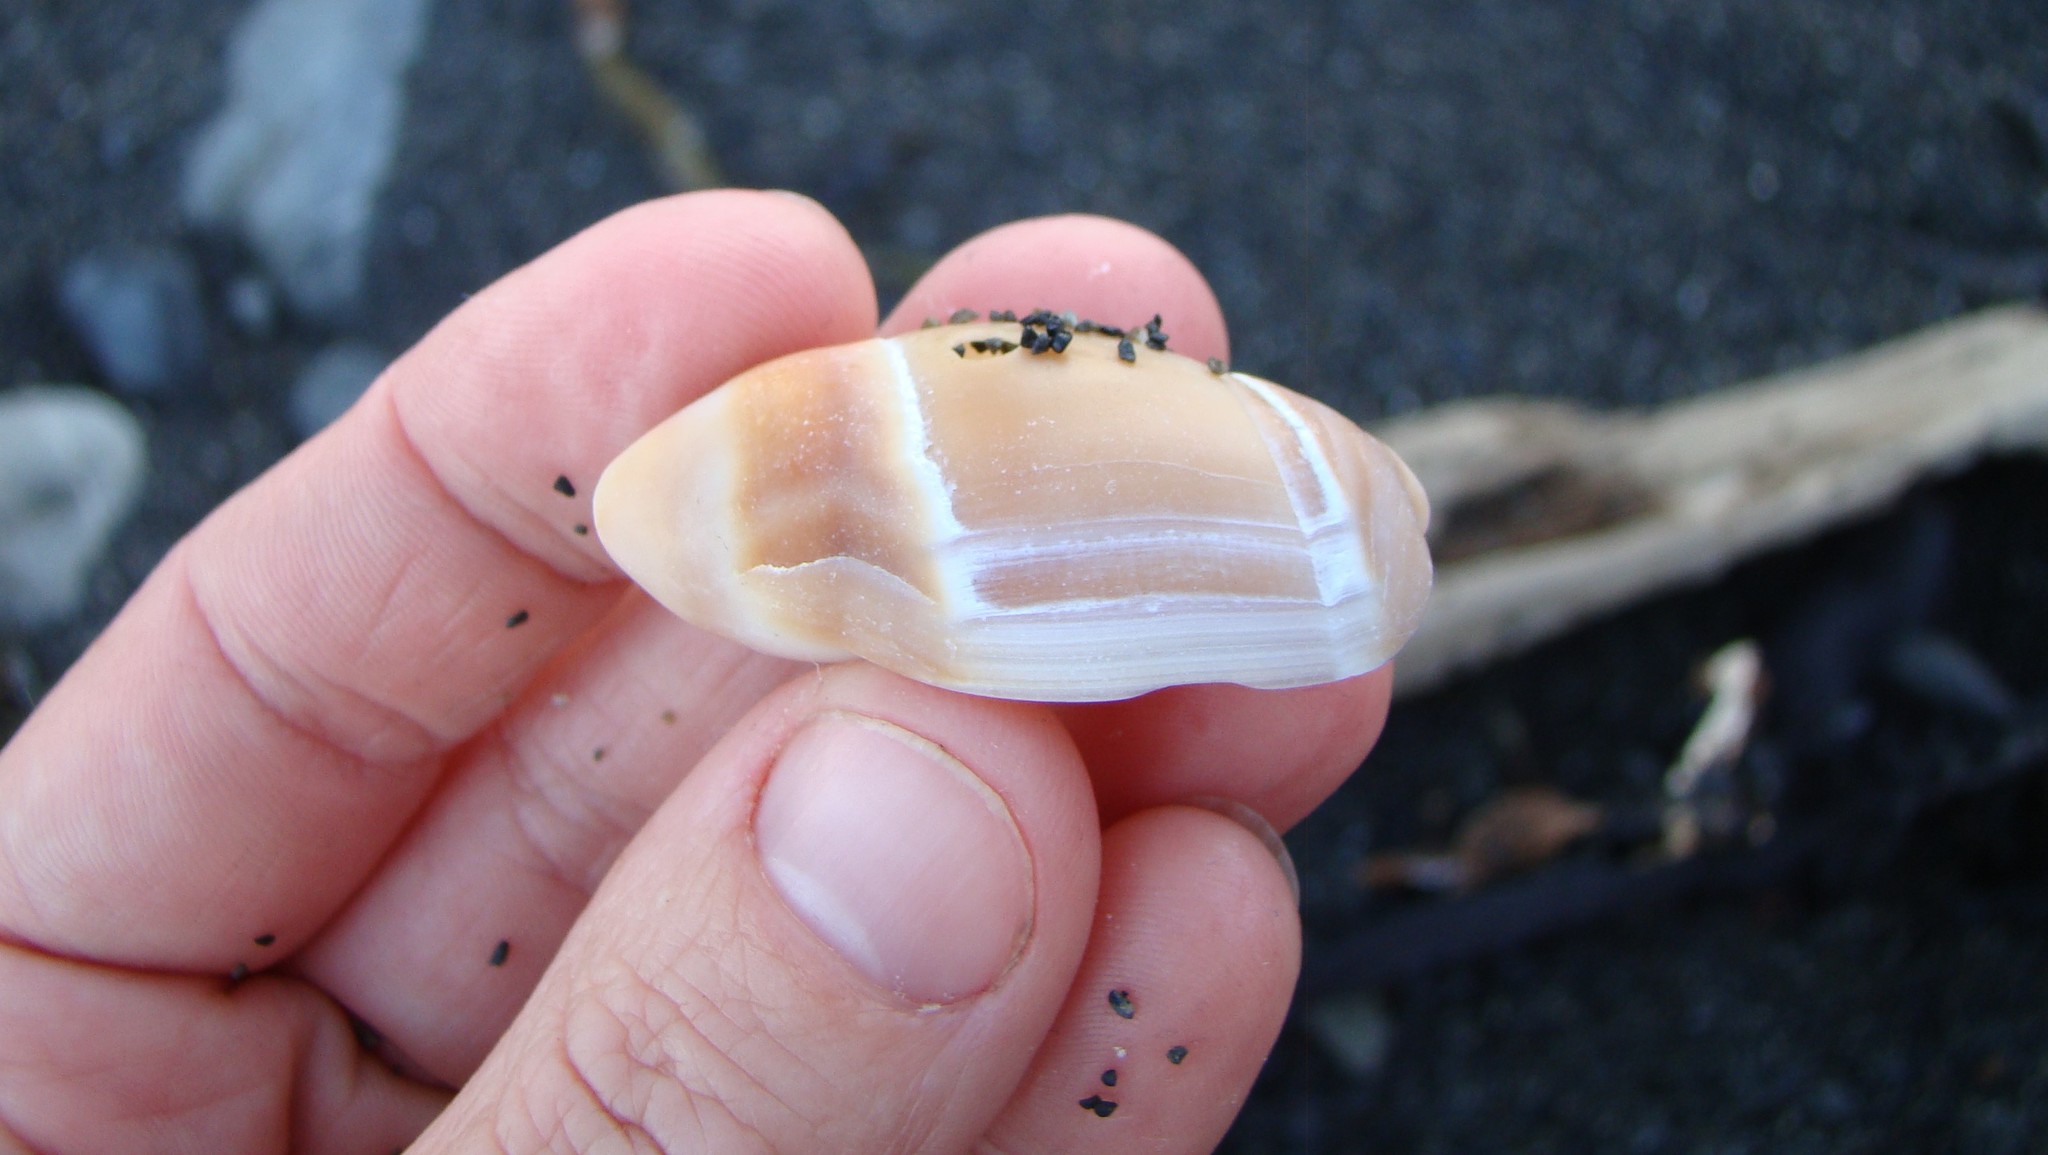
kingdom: Animalia
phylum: Mollusca
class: Gastropoda
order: Neogastropoda
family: Ancillariidae
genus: Amalda
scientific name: Amalda australis
